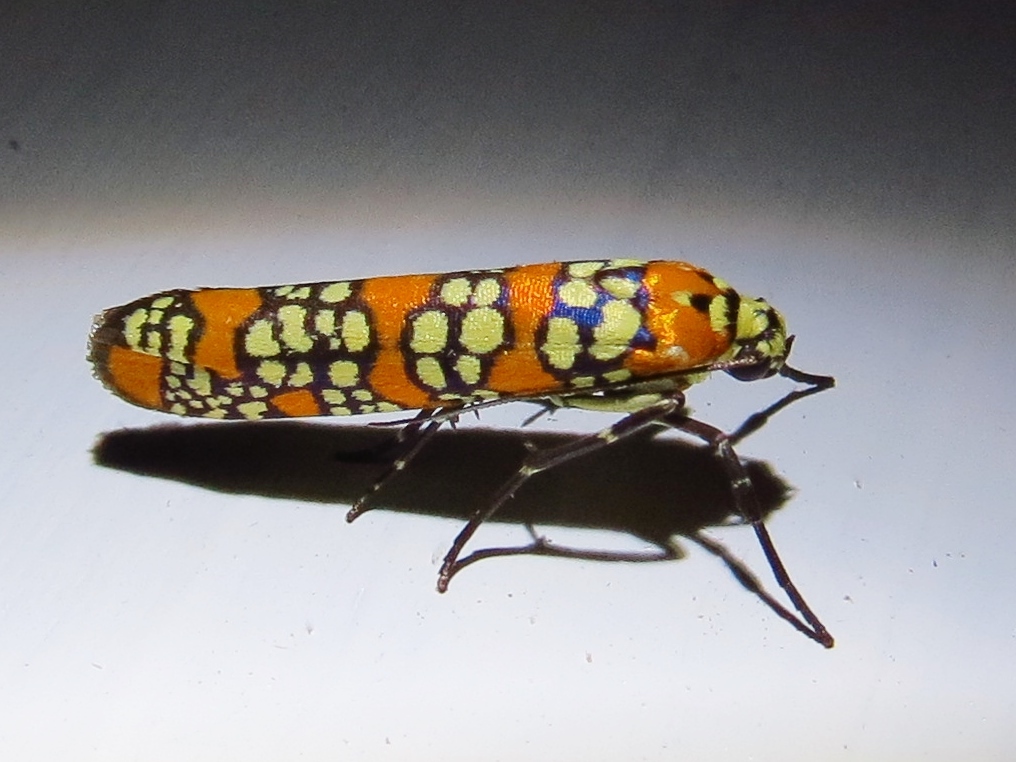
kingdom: Animalia
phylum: Arthropoda
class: Insecta
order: Lepidoptera
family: Attevidae
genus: Atteva
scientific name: Atteva punctella
